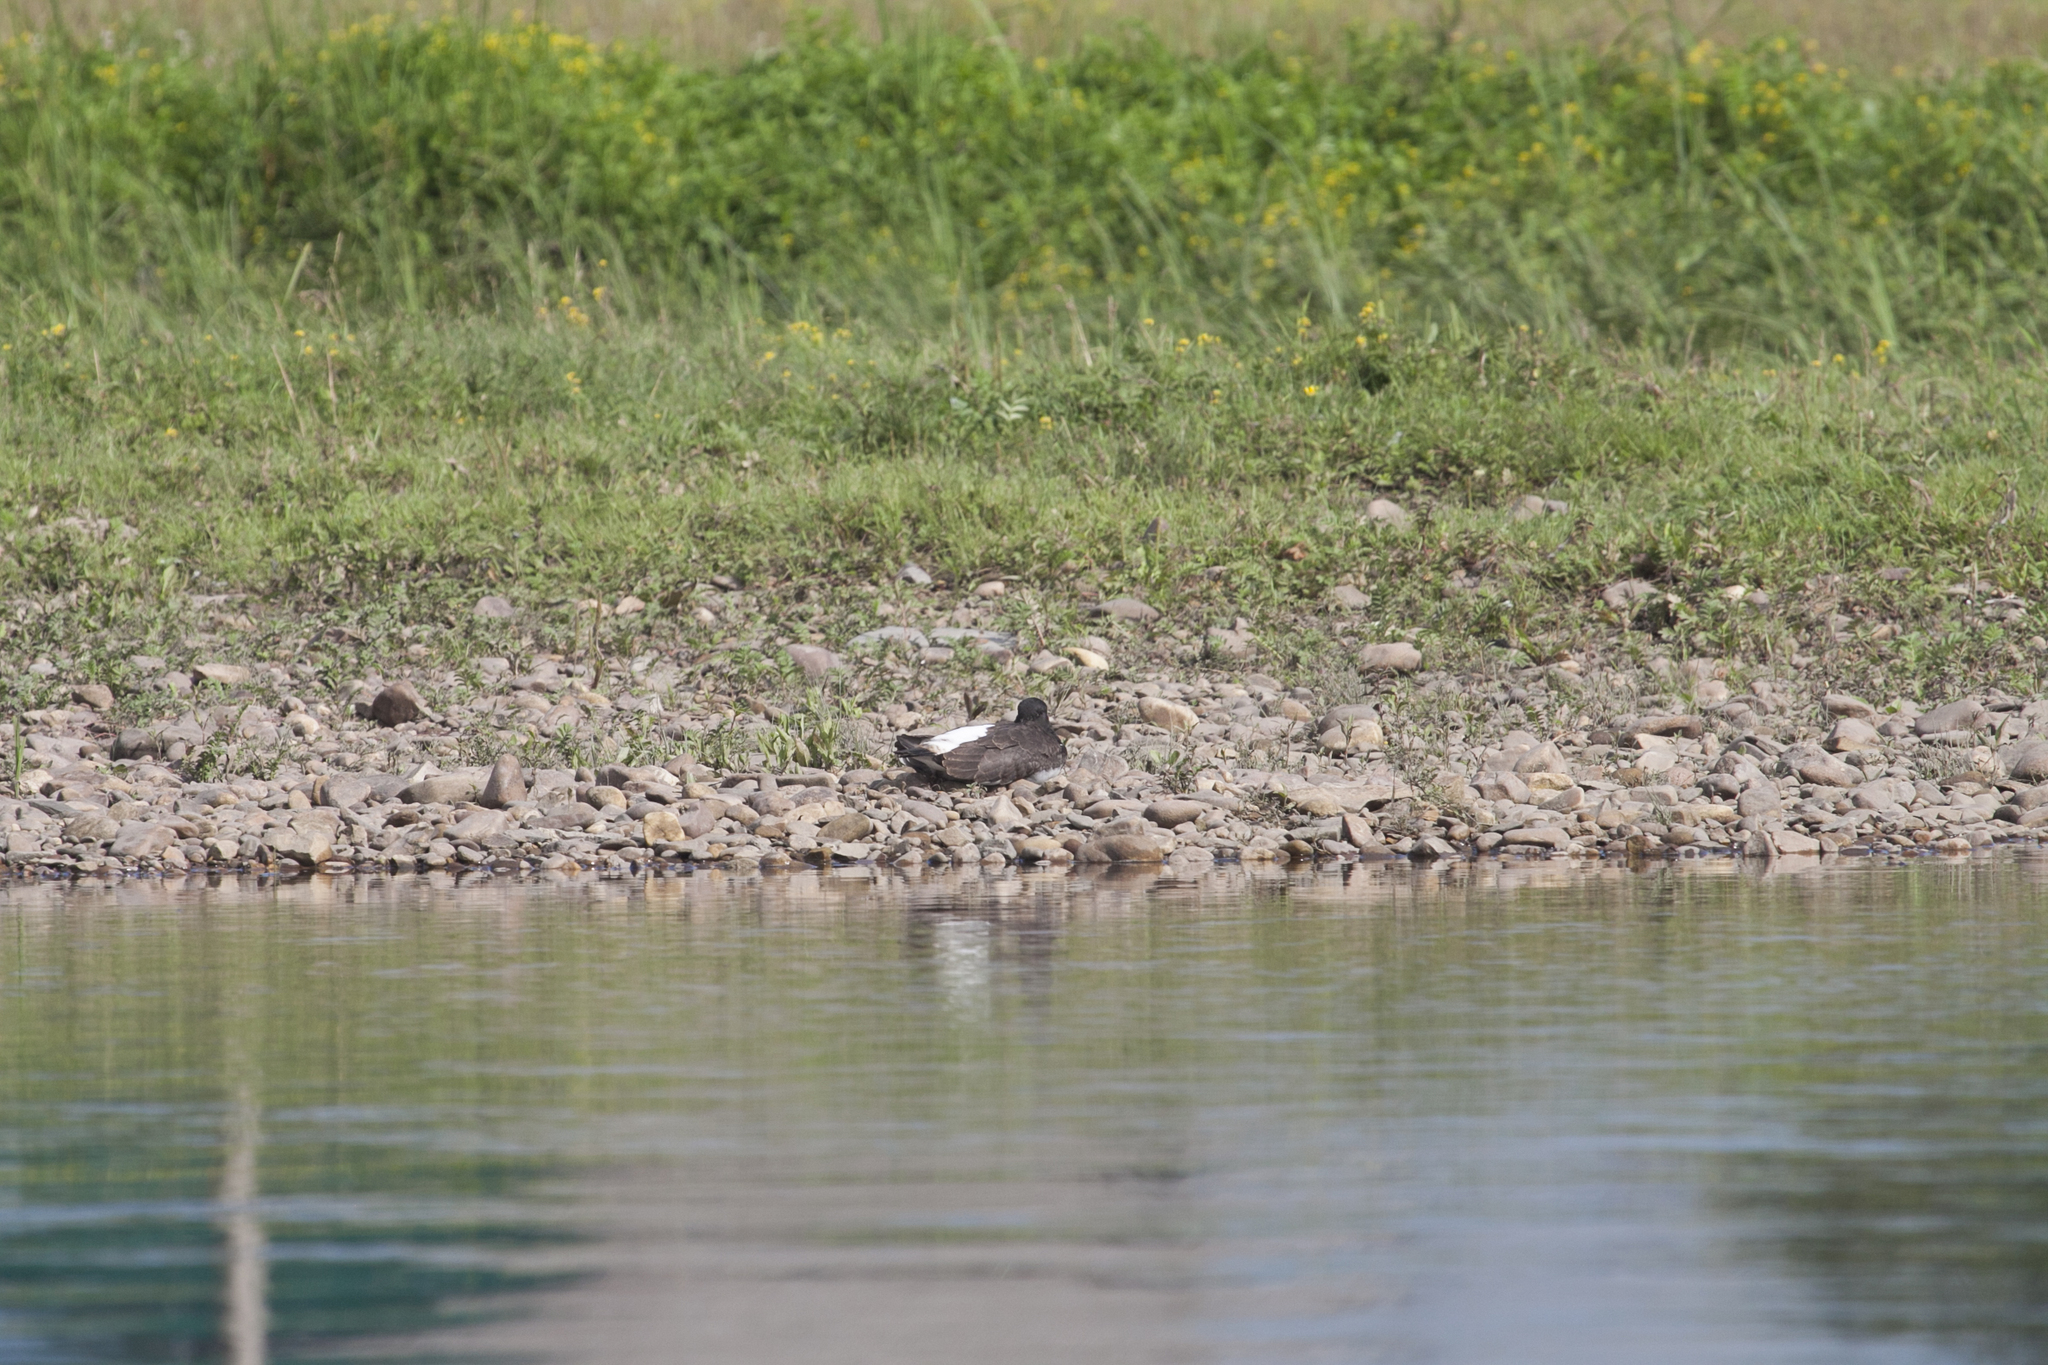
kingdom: Animalia
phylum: Chordata
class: Aves
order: Charadriiformes
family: Haematopodidae
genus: Haematopus
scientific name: Haematopus ostralegus
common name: Eurasian oystercatcher
